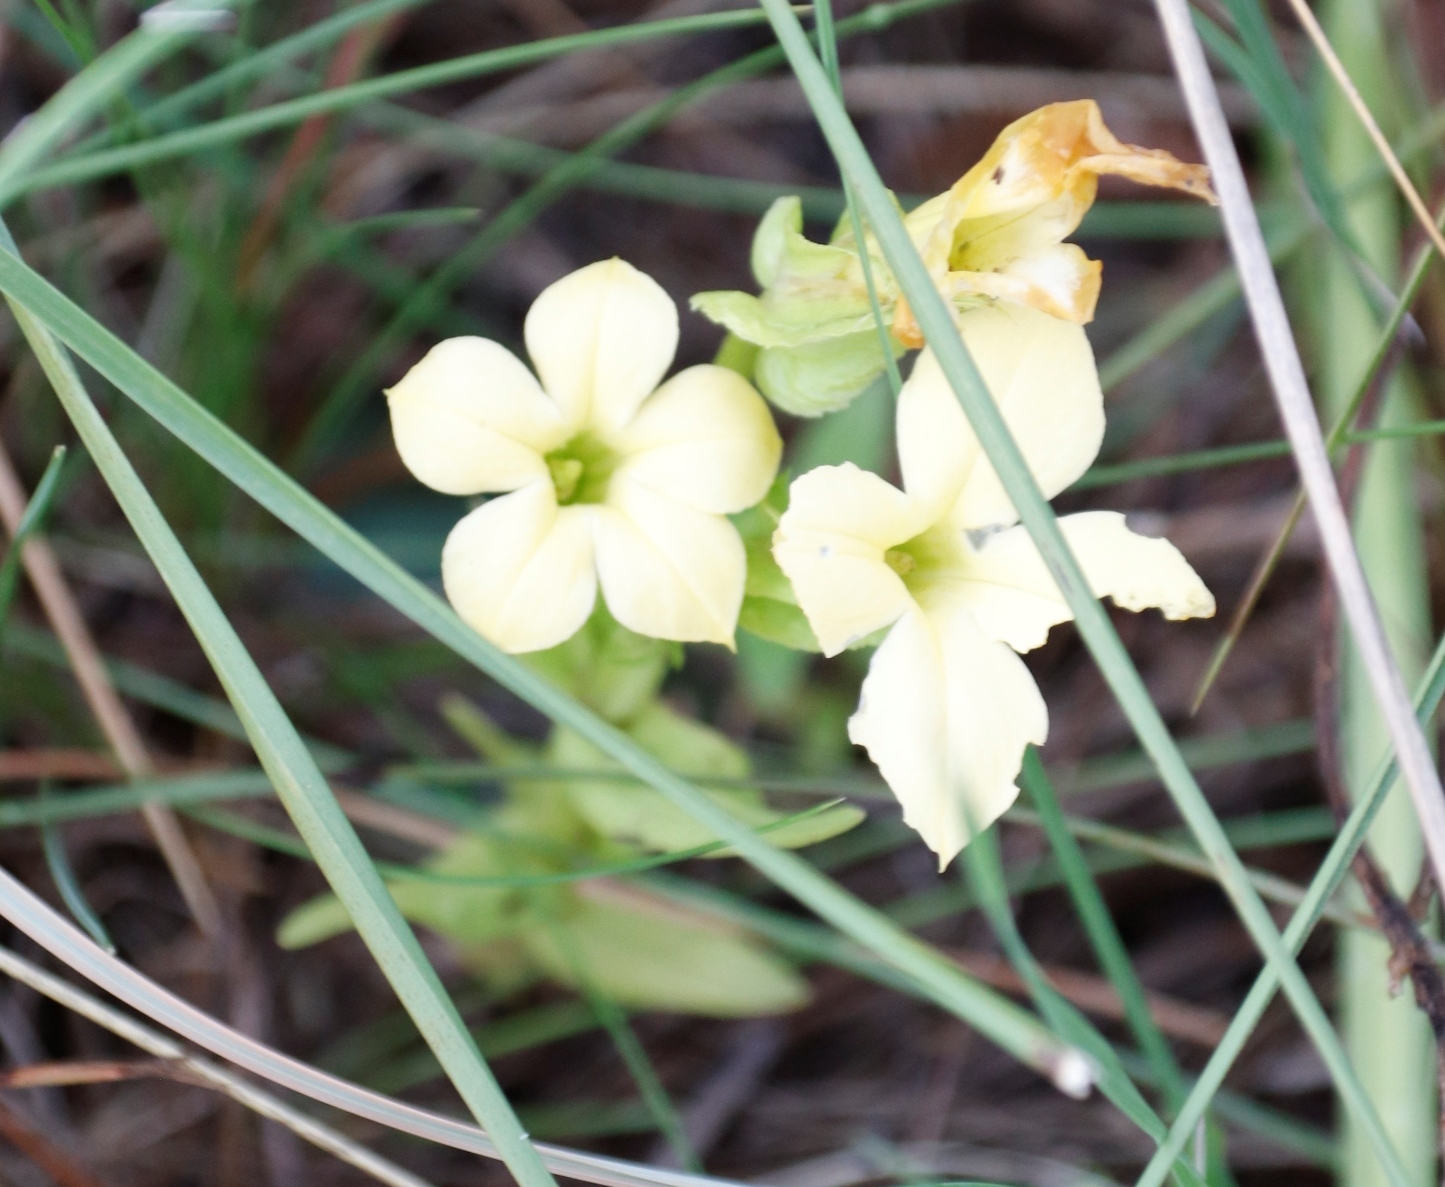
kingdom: Plantae
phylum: Tracheophyta
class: Magnoliopsida
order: Gentianales
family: Gentianaceae
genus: Exochaenium
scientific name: Exochaenium grande
